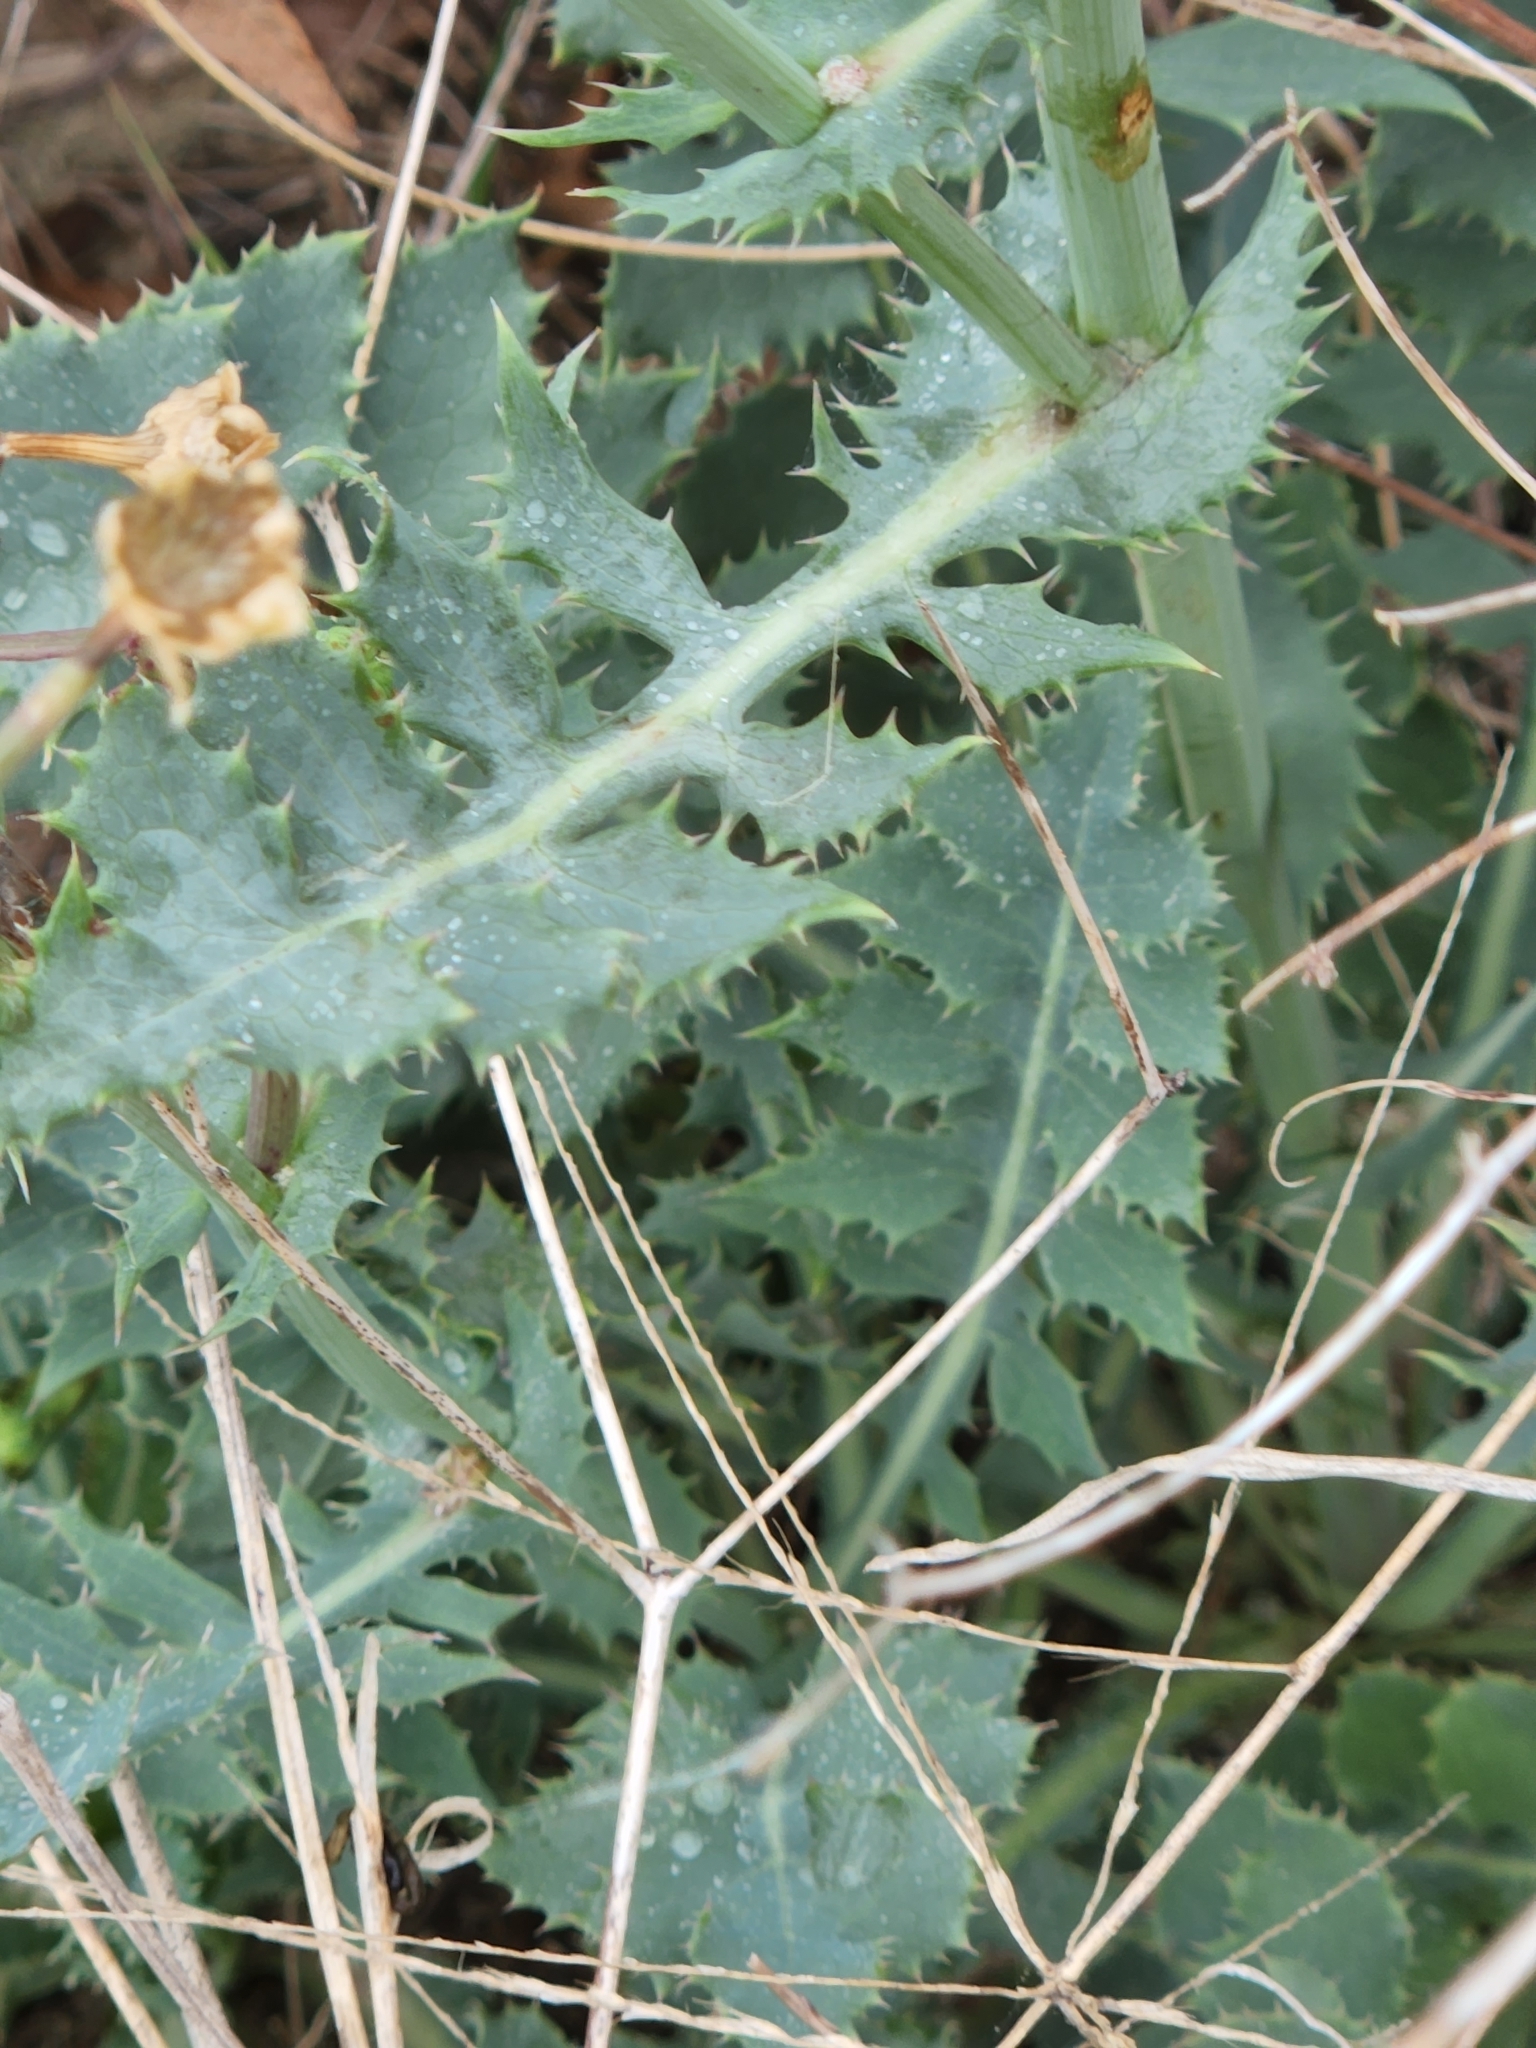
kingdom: Plantae
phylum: Tracheophyta
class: Magnoliopsida
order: Asterales
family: Asteraceae
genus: Sonchus
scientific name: Sonchus asper
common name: Prickly sow-thistle
